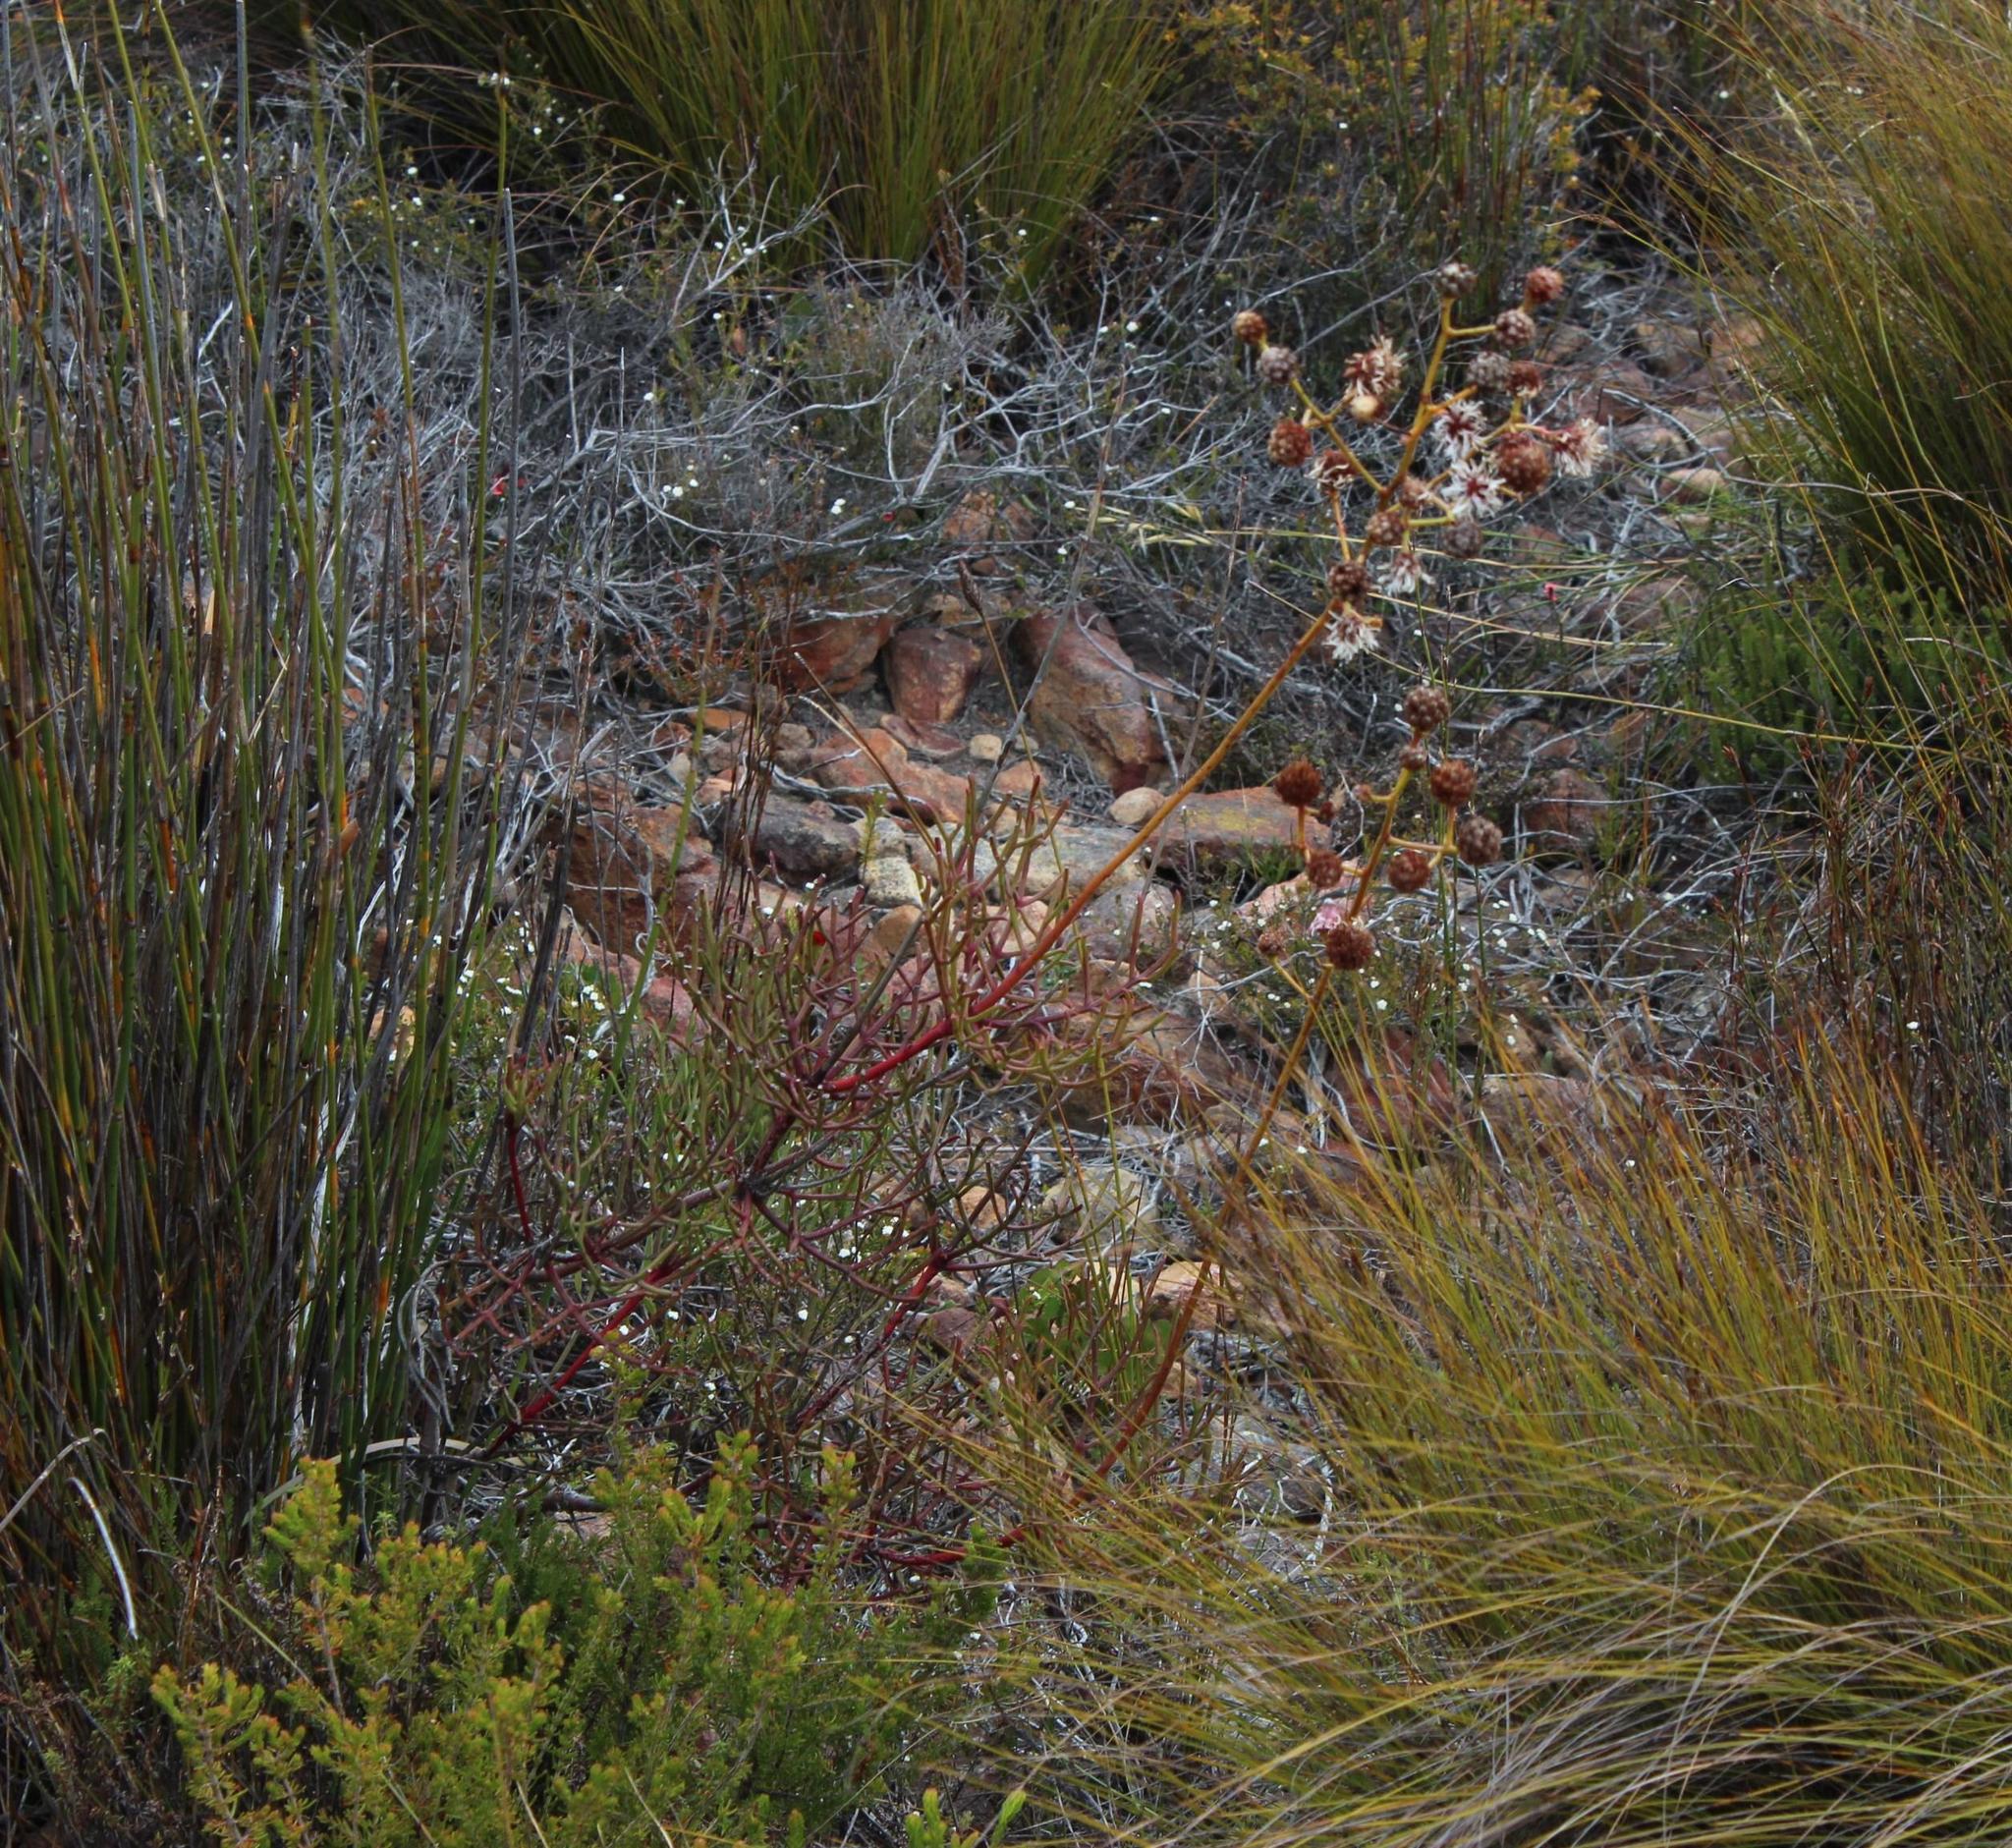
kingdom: Plantae
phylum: Tracheophyta
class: Magnoliopsida
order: Proteales
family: Proteaceae
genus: Serruria
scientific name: Serruria williamsii
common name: King spiderhead
